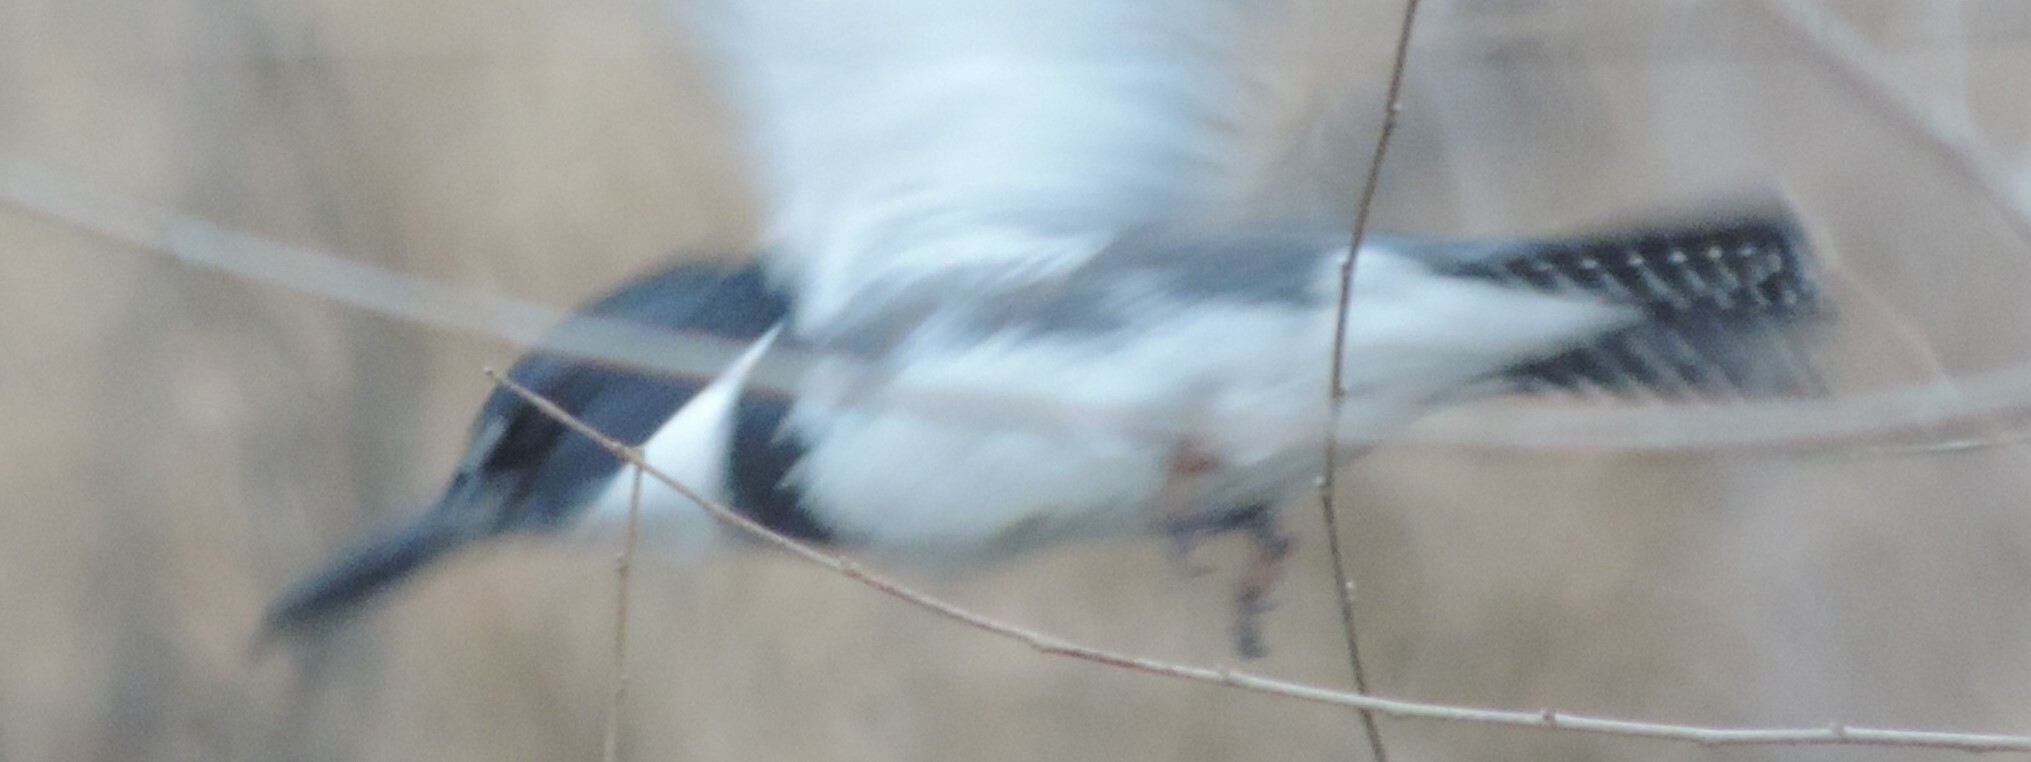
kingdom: Animalia
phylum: Chordata
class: Aves
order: Coraciiformes
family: Alcedinidae
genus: Megaceryle
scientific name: Megaceryle alcyon
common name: Belted kingfisher
